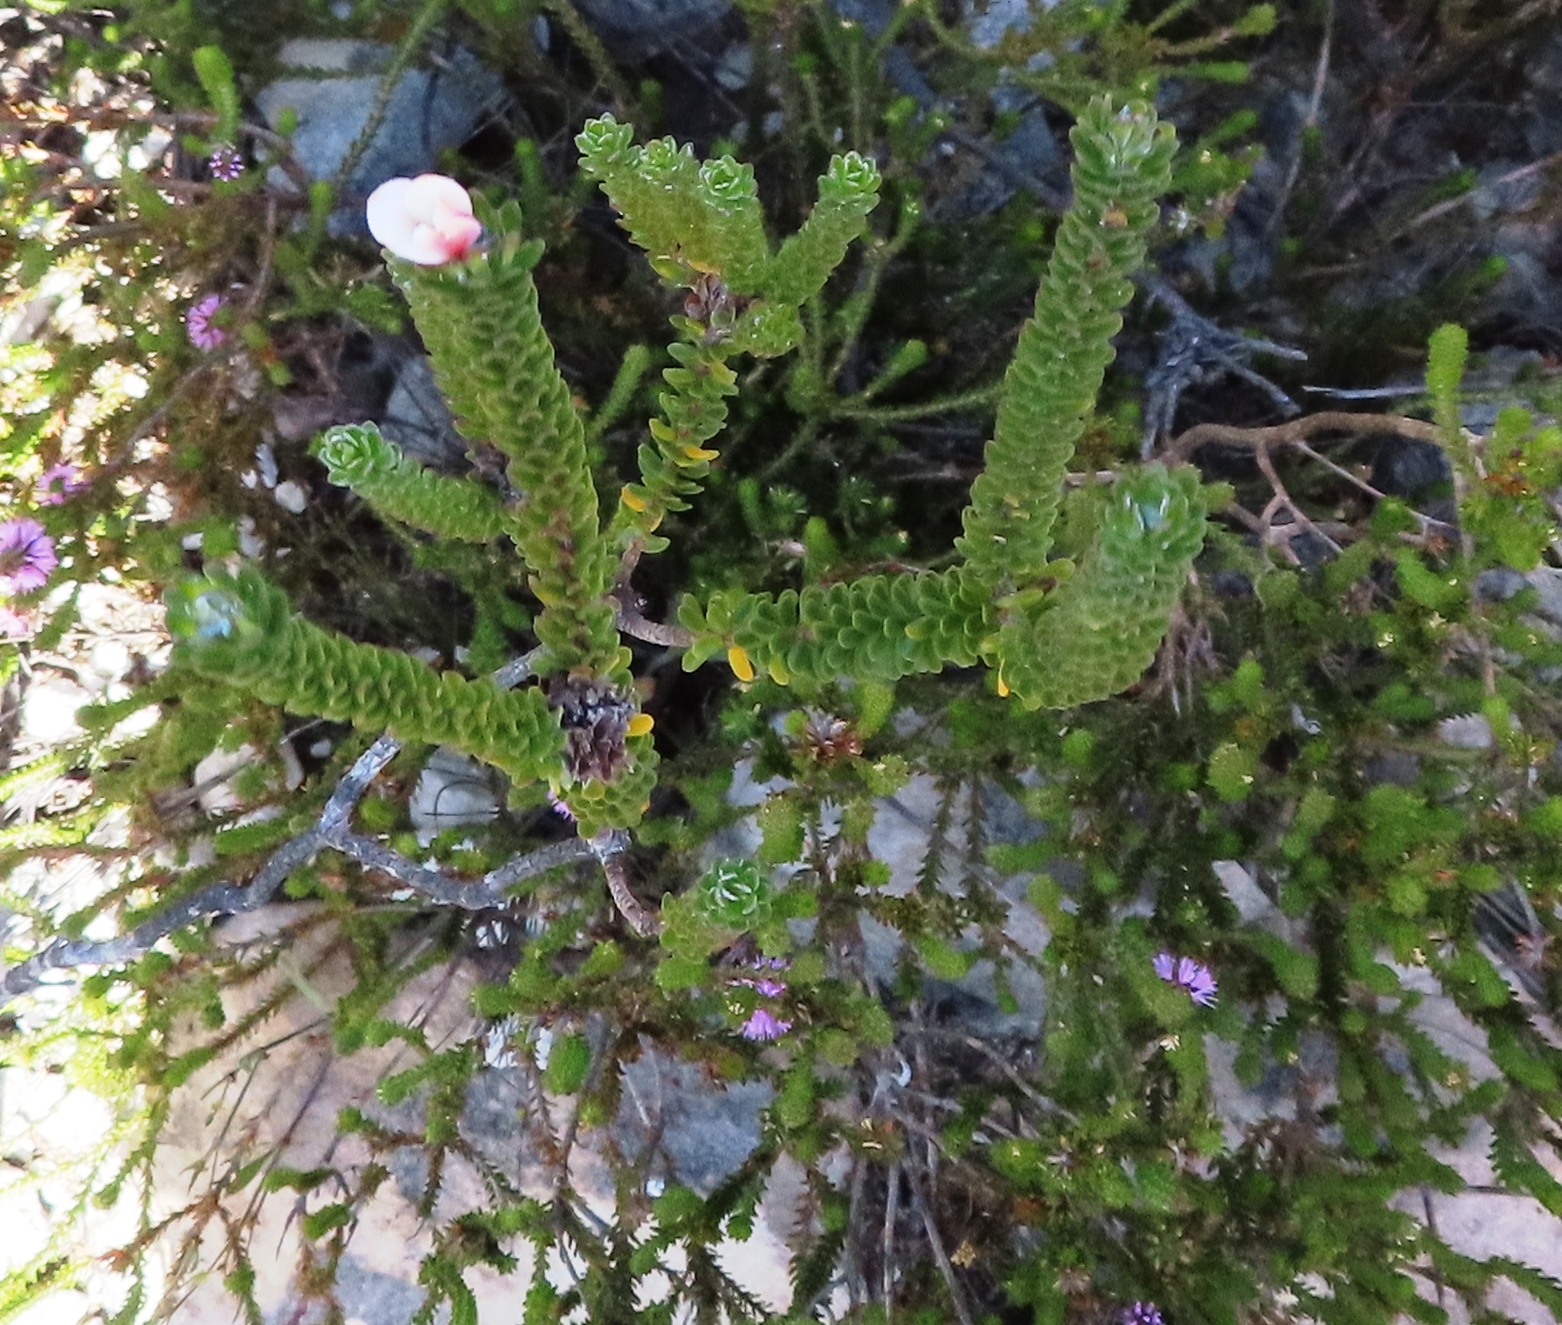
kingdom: Plantae
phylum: Tracheophyta
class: Magnoliopsida
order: Sapindales
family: Rutaceae
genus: Adenandra
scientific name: Adenandra obtusata
